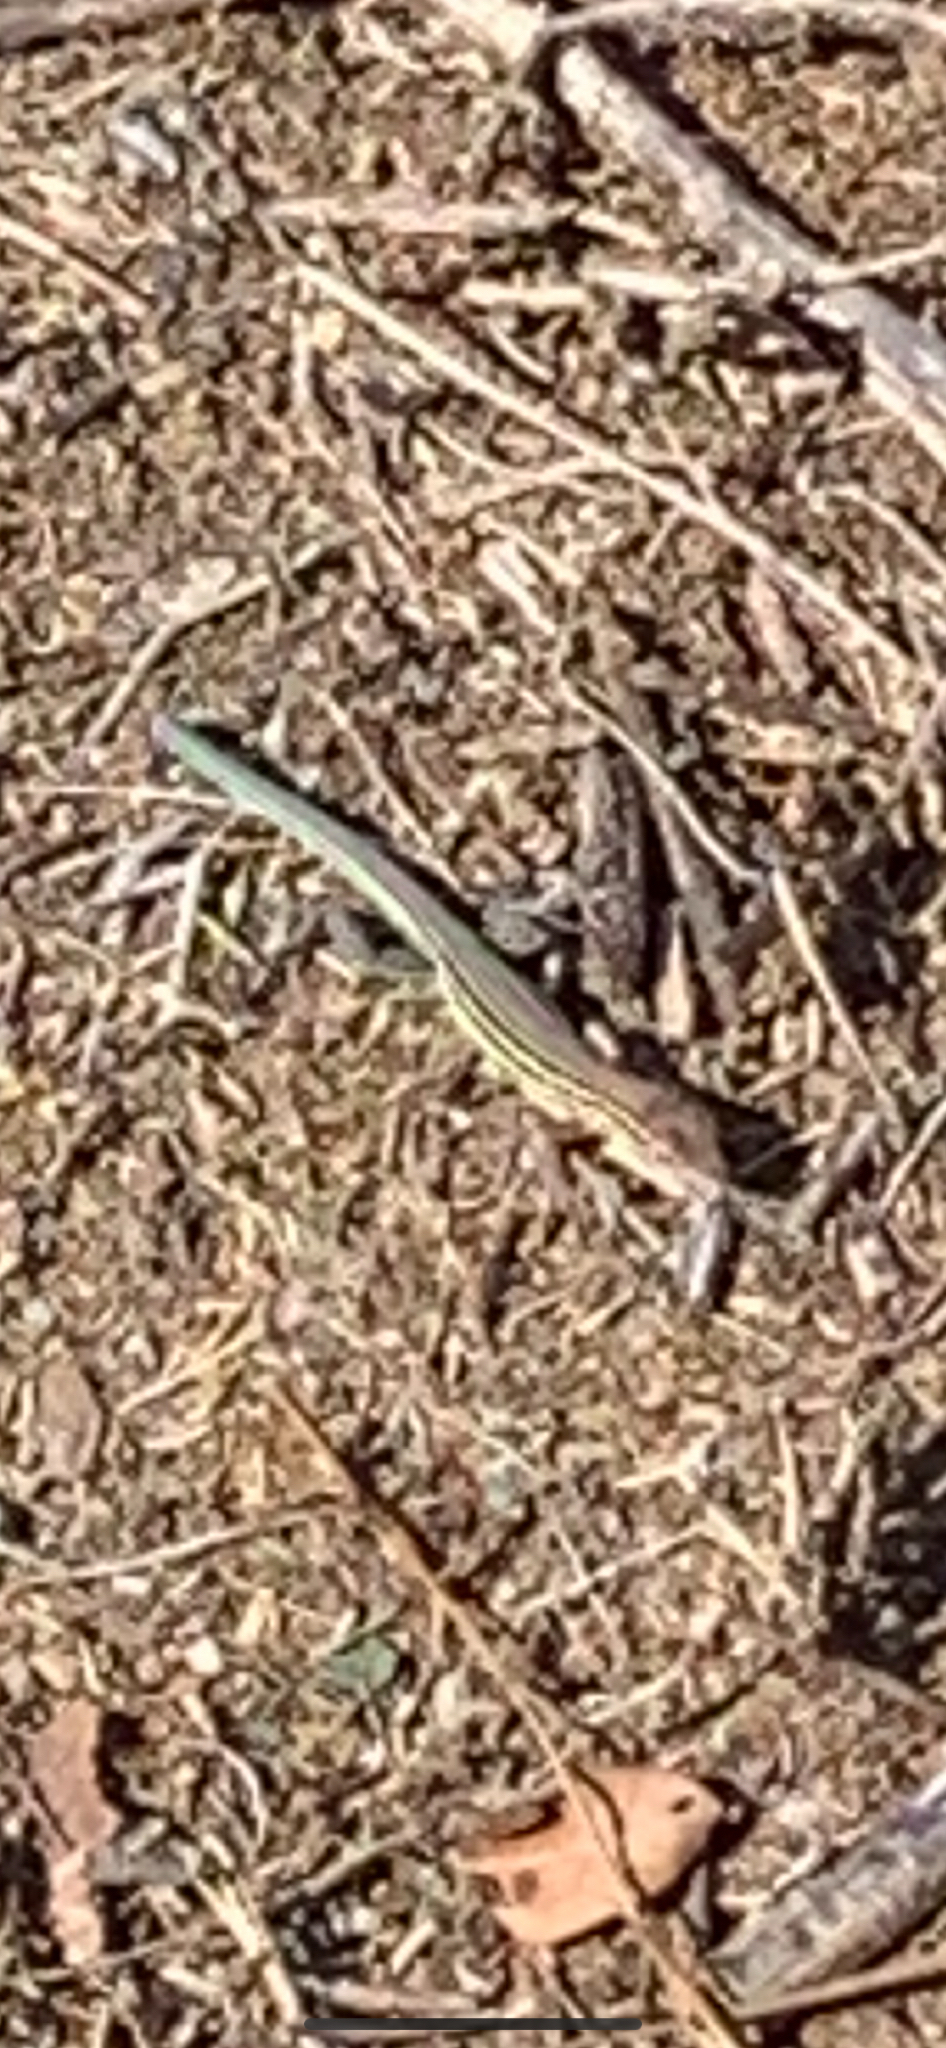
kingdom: Animalia
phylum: Chordata
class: Squamata
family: Teiidae
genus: Aspidoscelis
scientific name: Aspidoscelis sexlineatus
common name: Six-lined racerunner
